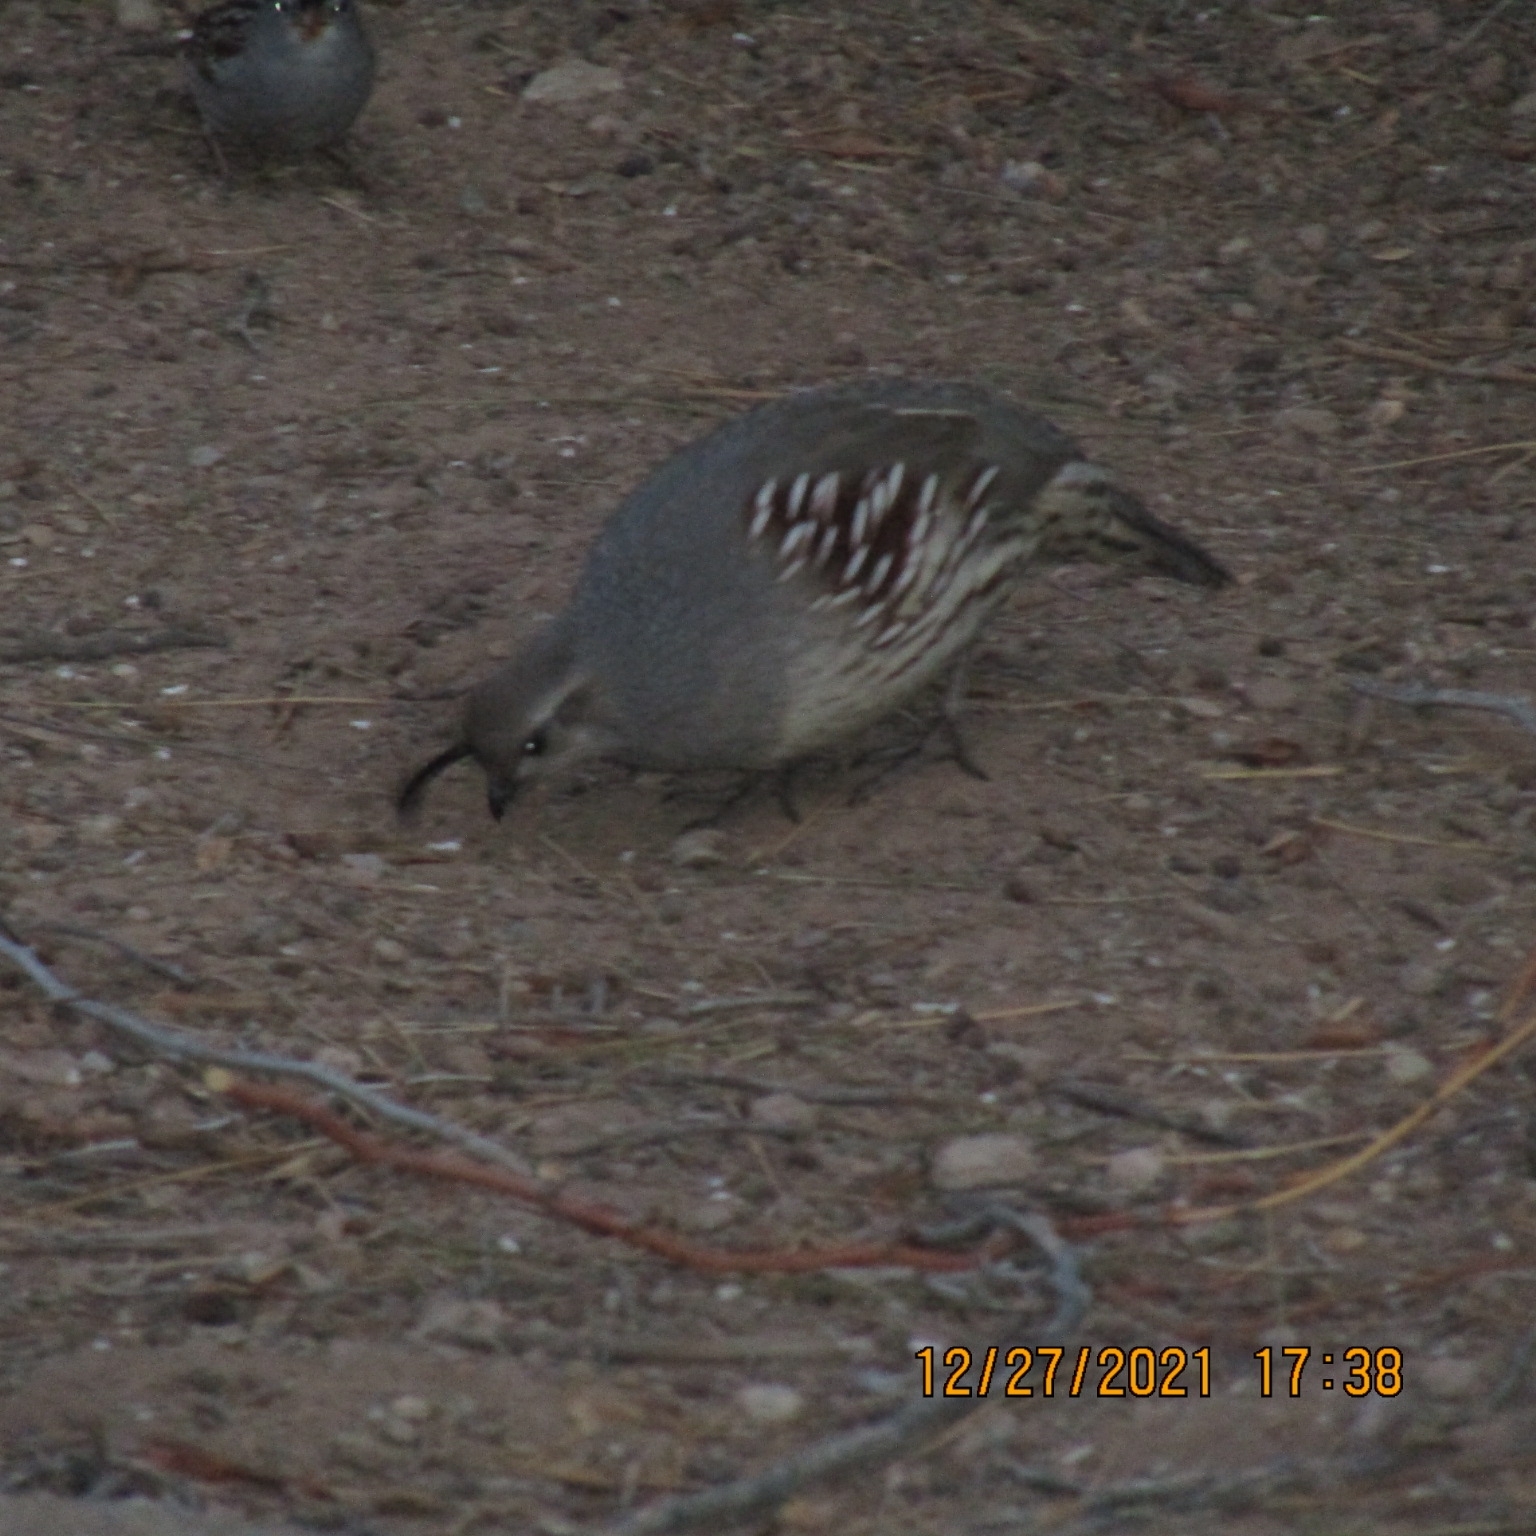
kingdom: Animalia
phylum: Chordata
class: Aves
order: Galliformes
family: Odontophoridae
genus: Callipepla
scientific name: Callipepla gambelii
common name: Gambel's quail
